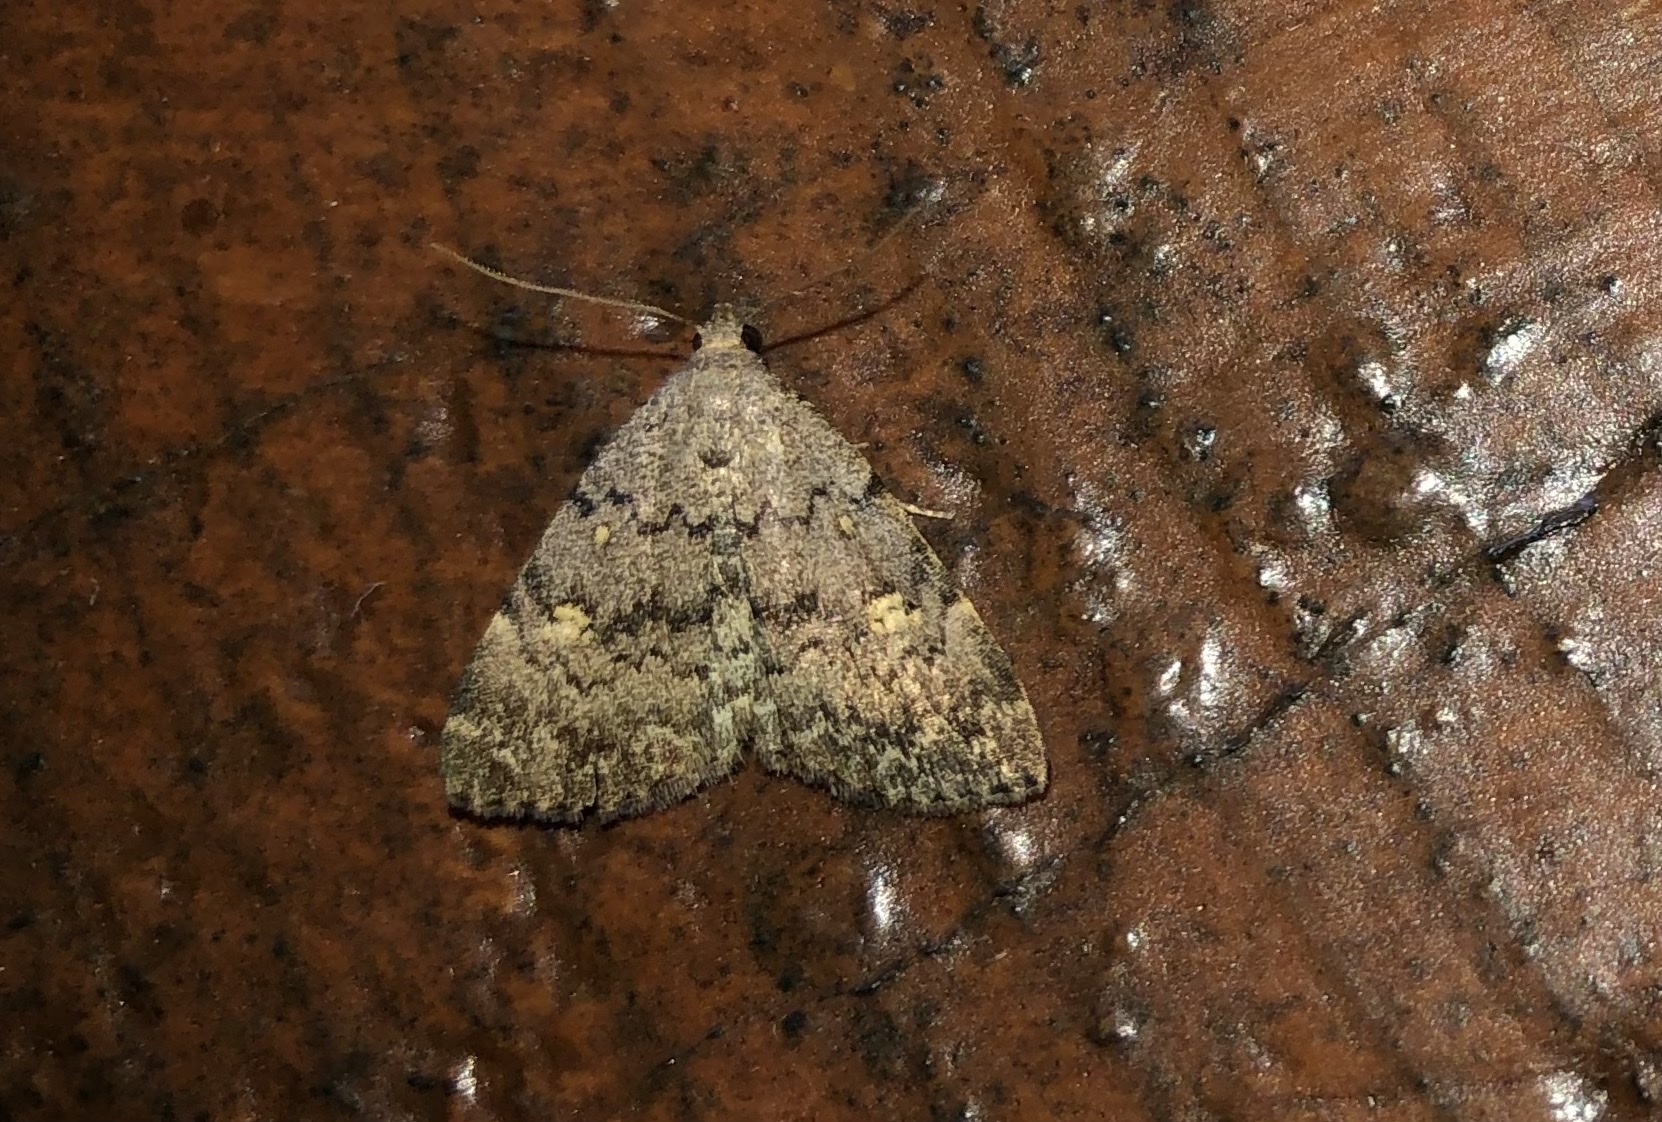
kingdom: Animalia
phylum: Arthropoda
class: Insecta
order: Lepidoptera
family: Erebidae
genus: Idia
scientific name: Idia aemula
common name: Common idia moth
